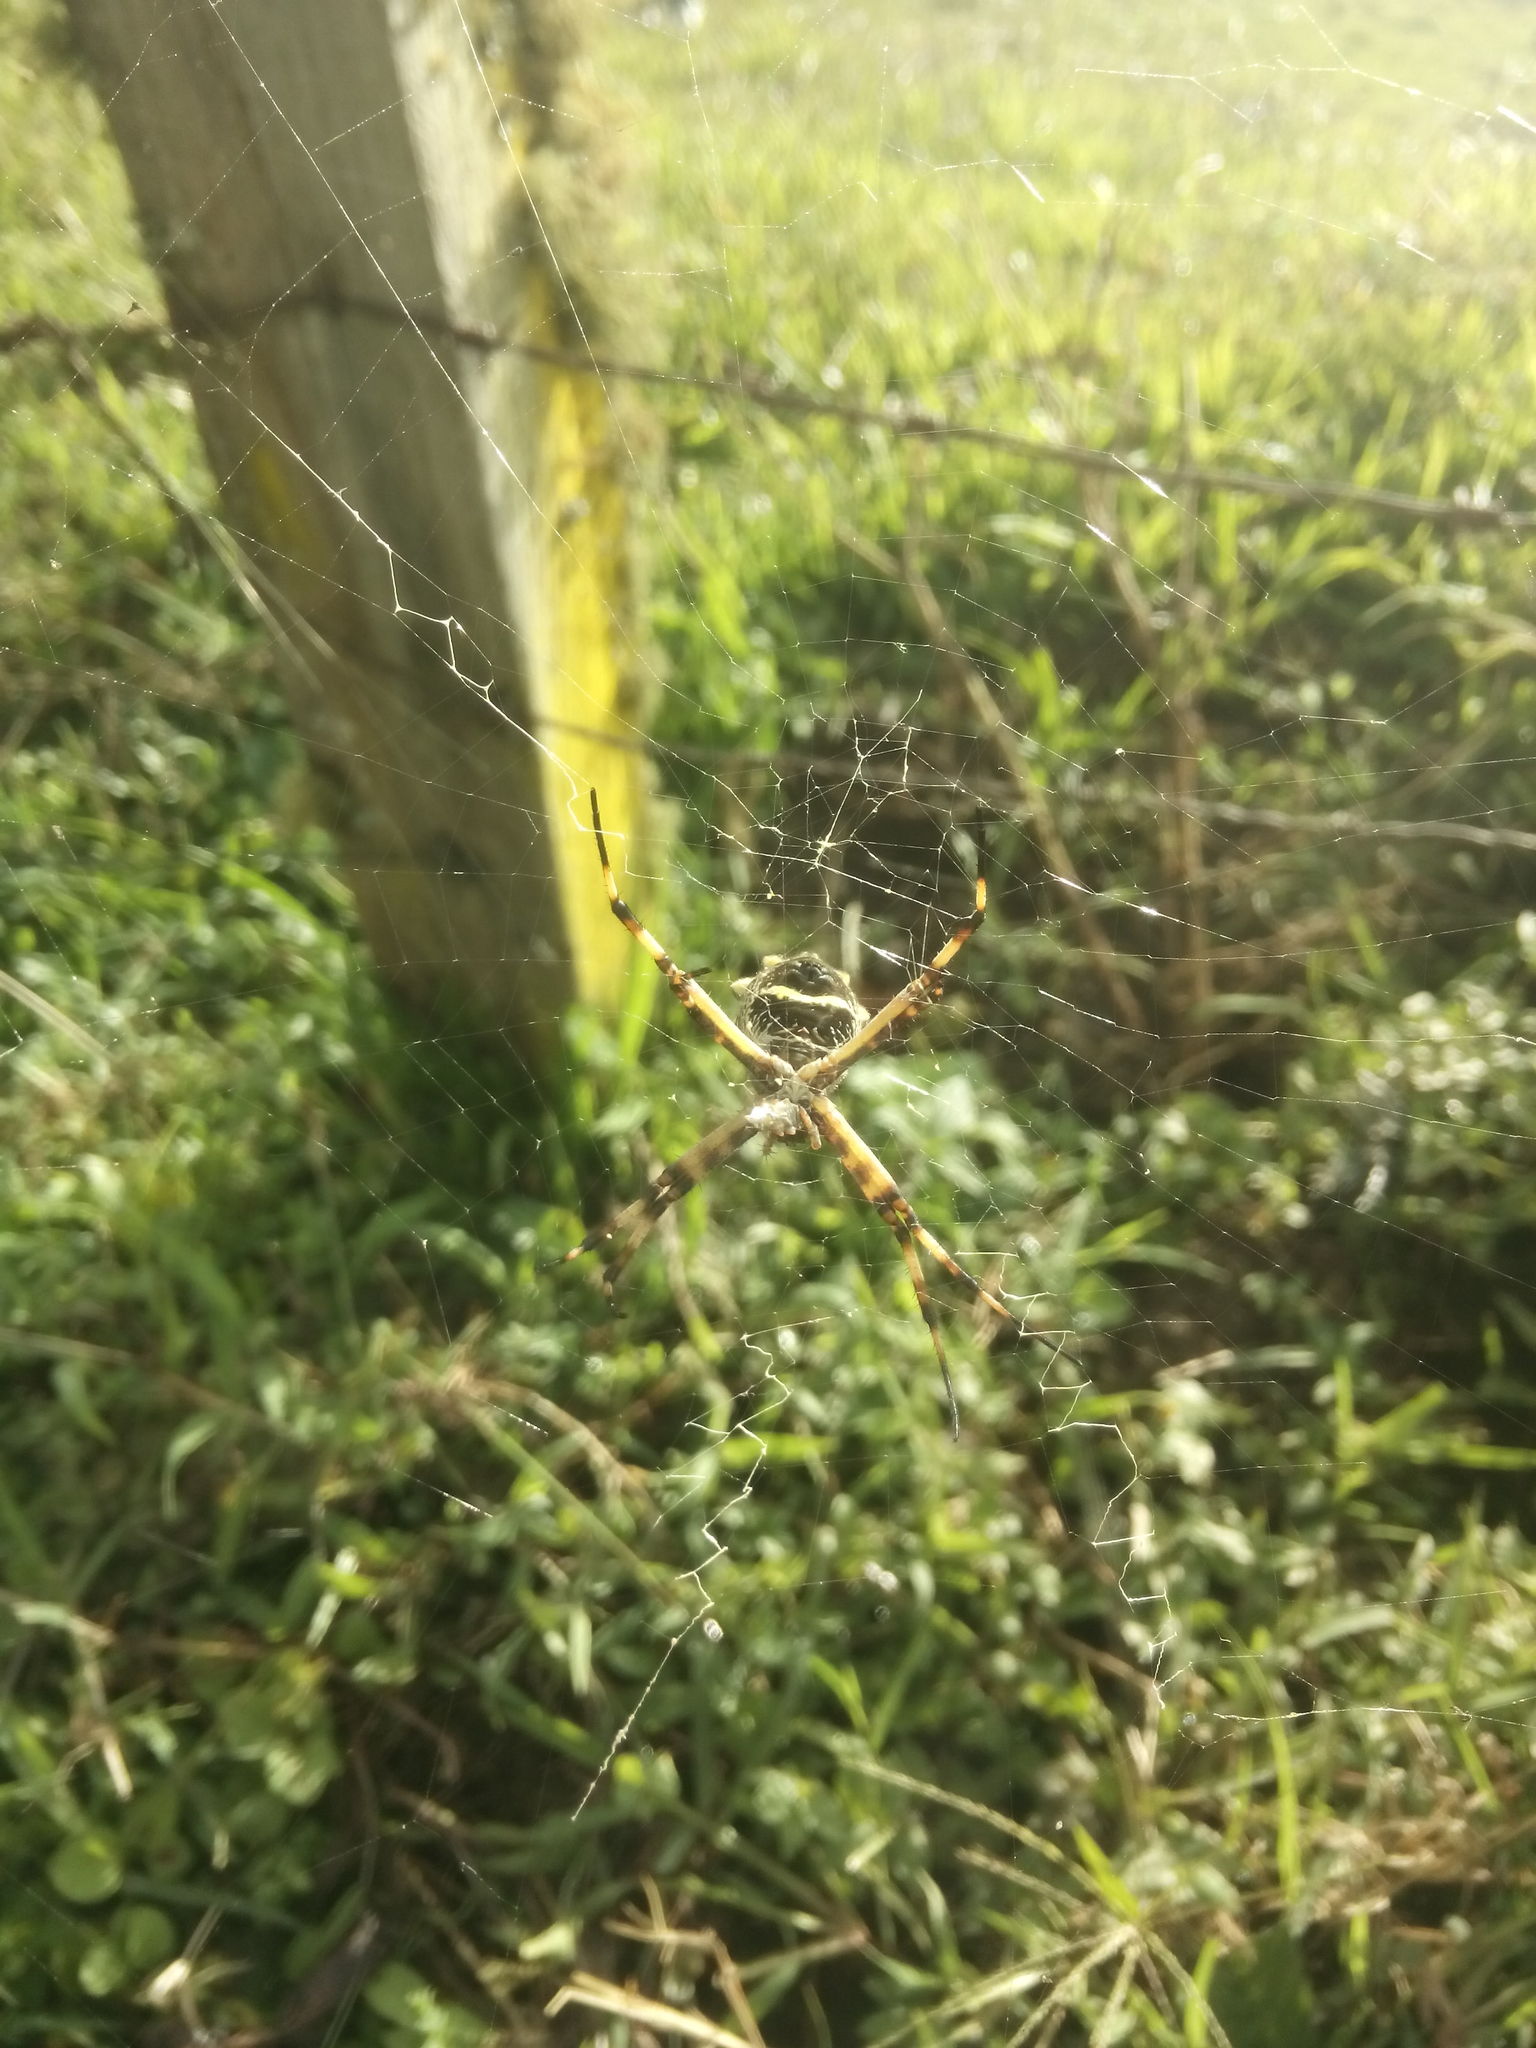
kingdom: Animalia
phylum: Arthropoda
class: Arachnida
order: Araneae
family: Araneidae
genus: Argiope
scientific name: Argiope argentata
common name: Orb weavers
